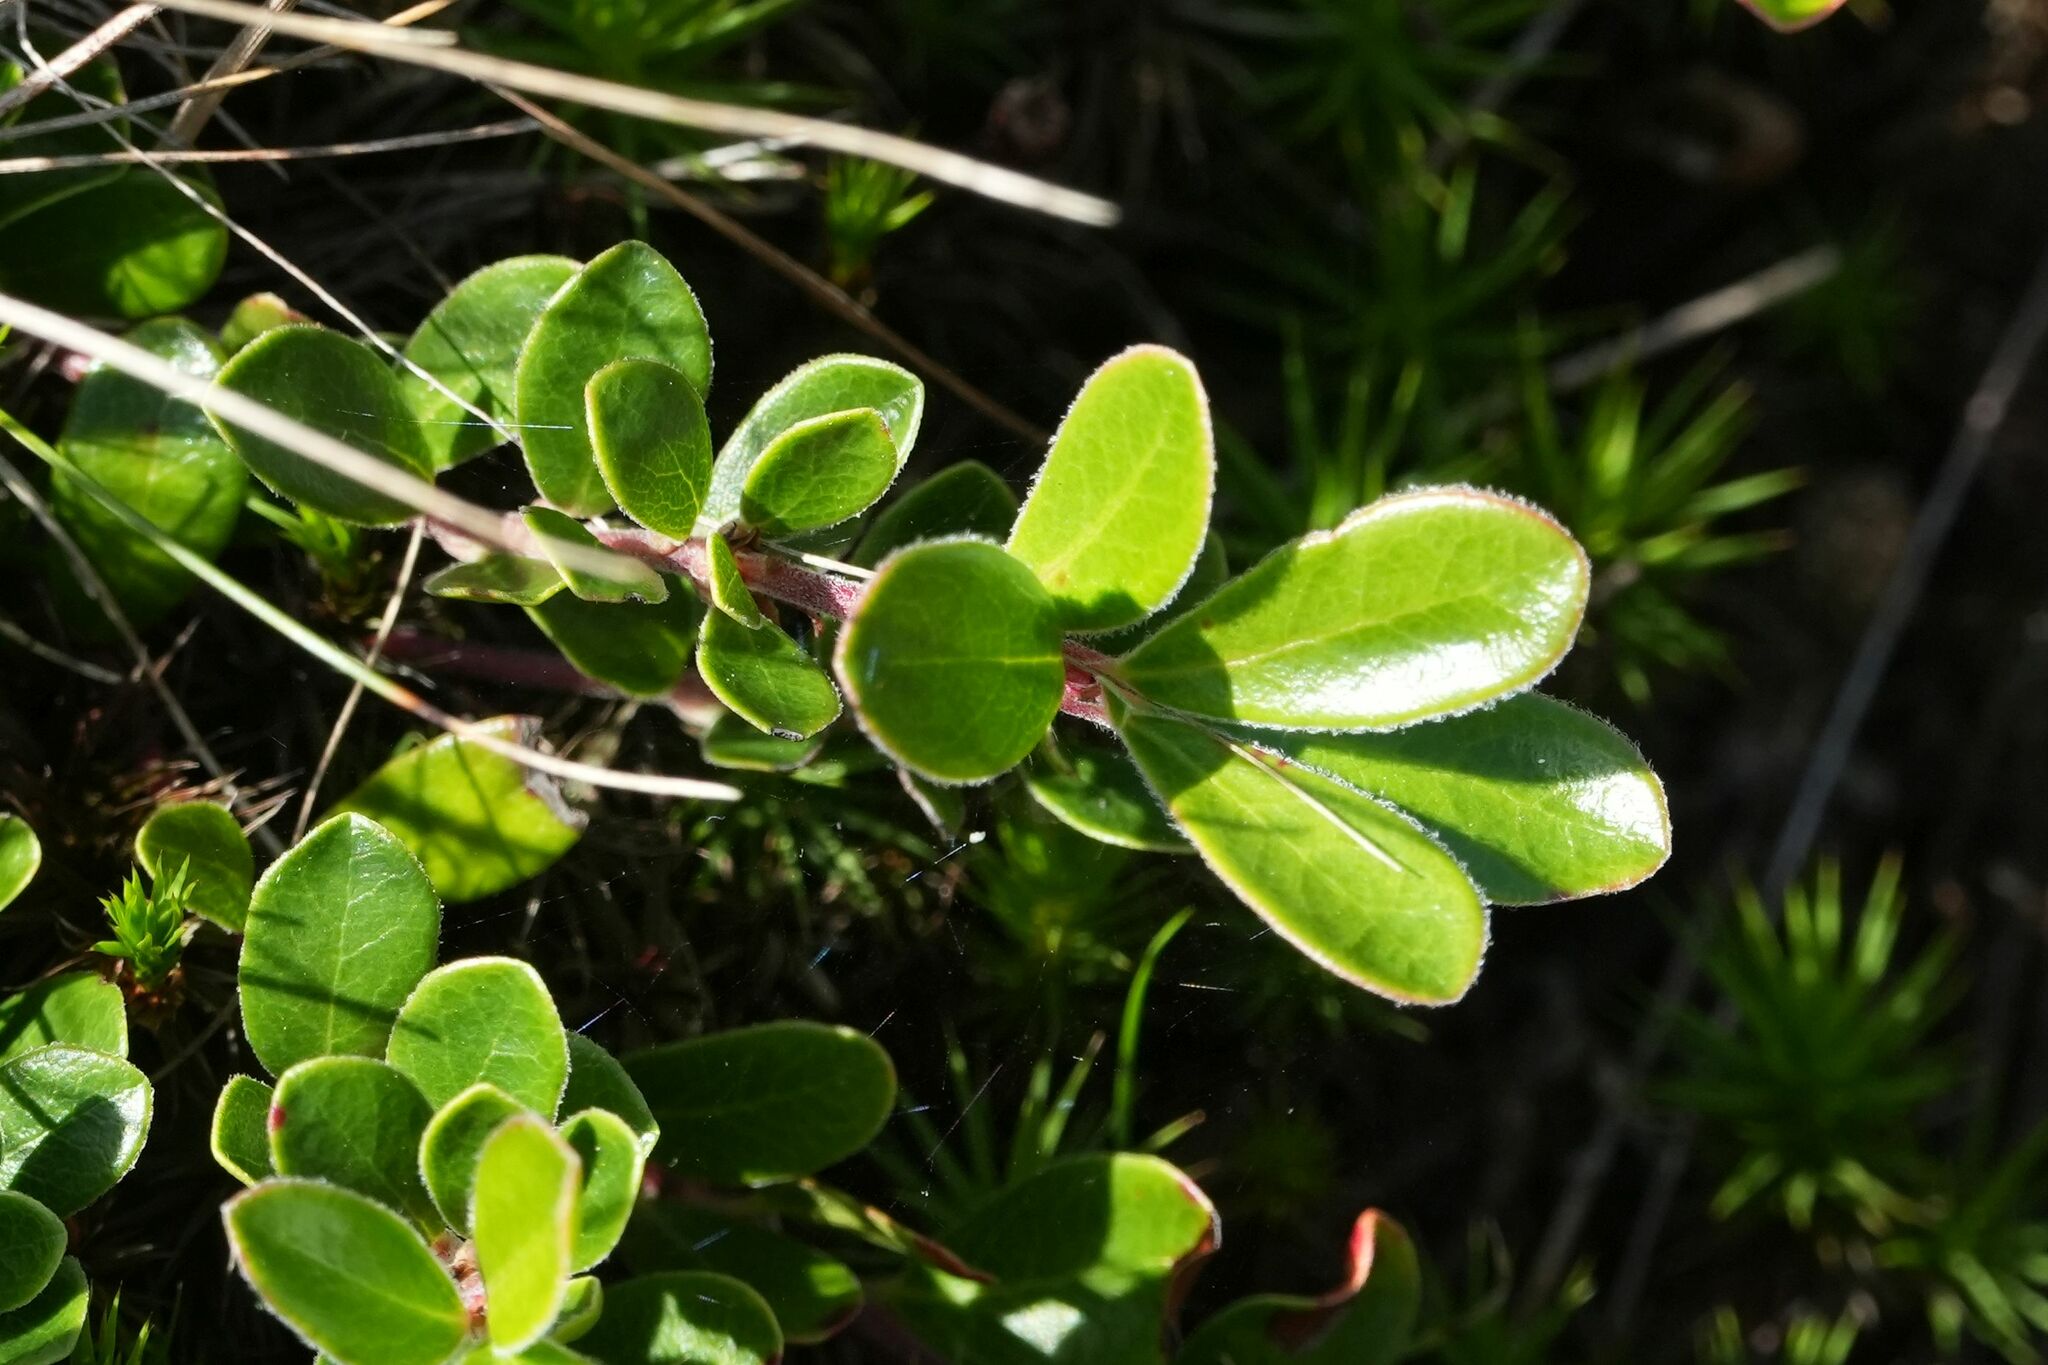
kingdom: Plantae
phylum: Tracheophyta
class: Magnoliopsida
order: Ericales
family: Ericaceae
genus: Arctostaphylos
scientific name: Arctostaphylos uva-ursi
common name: Bearberry
